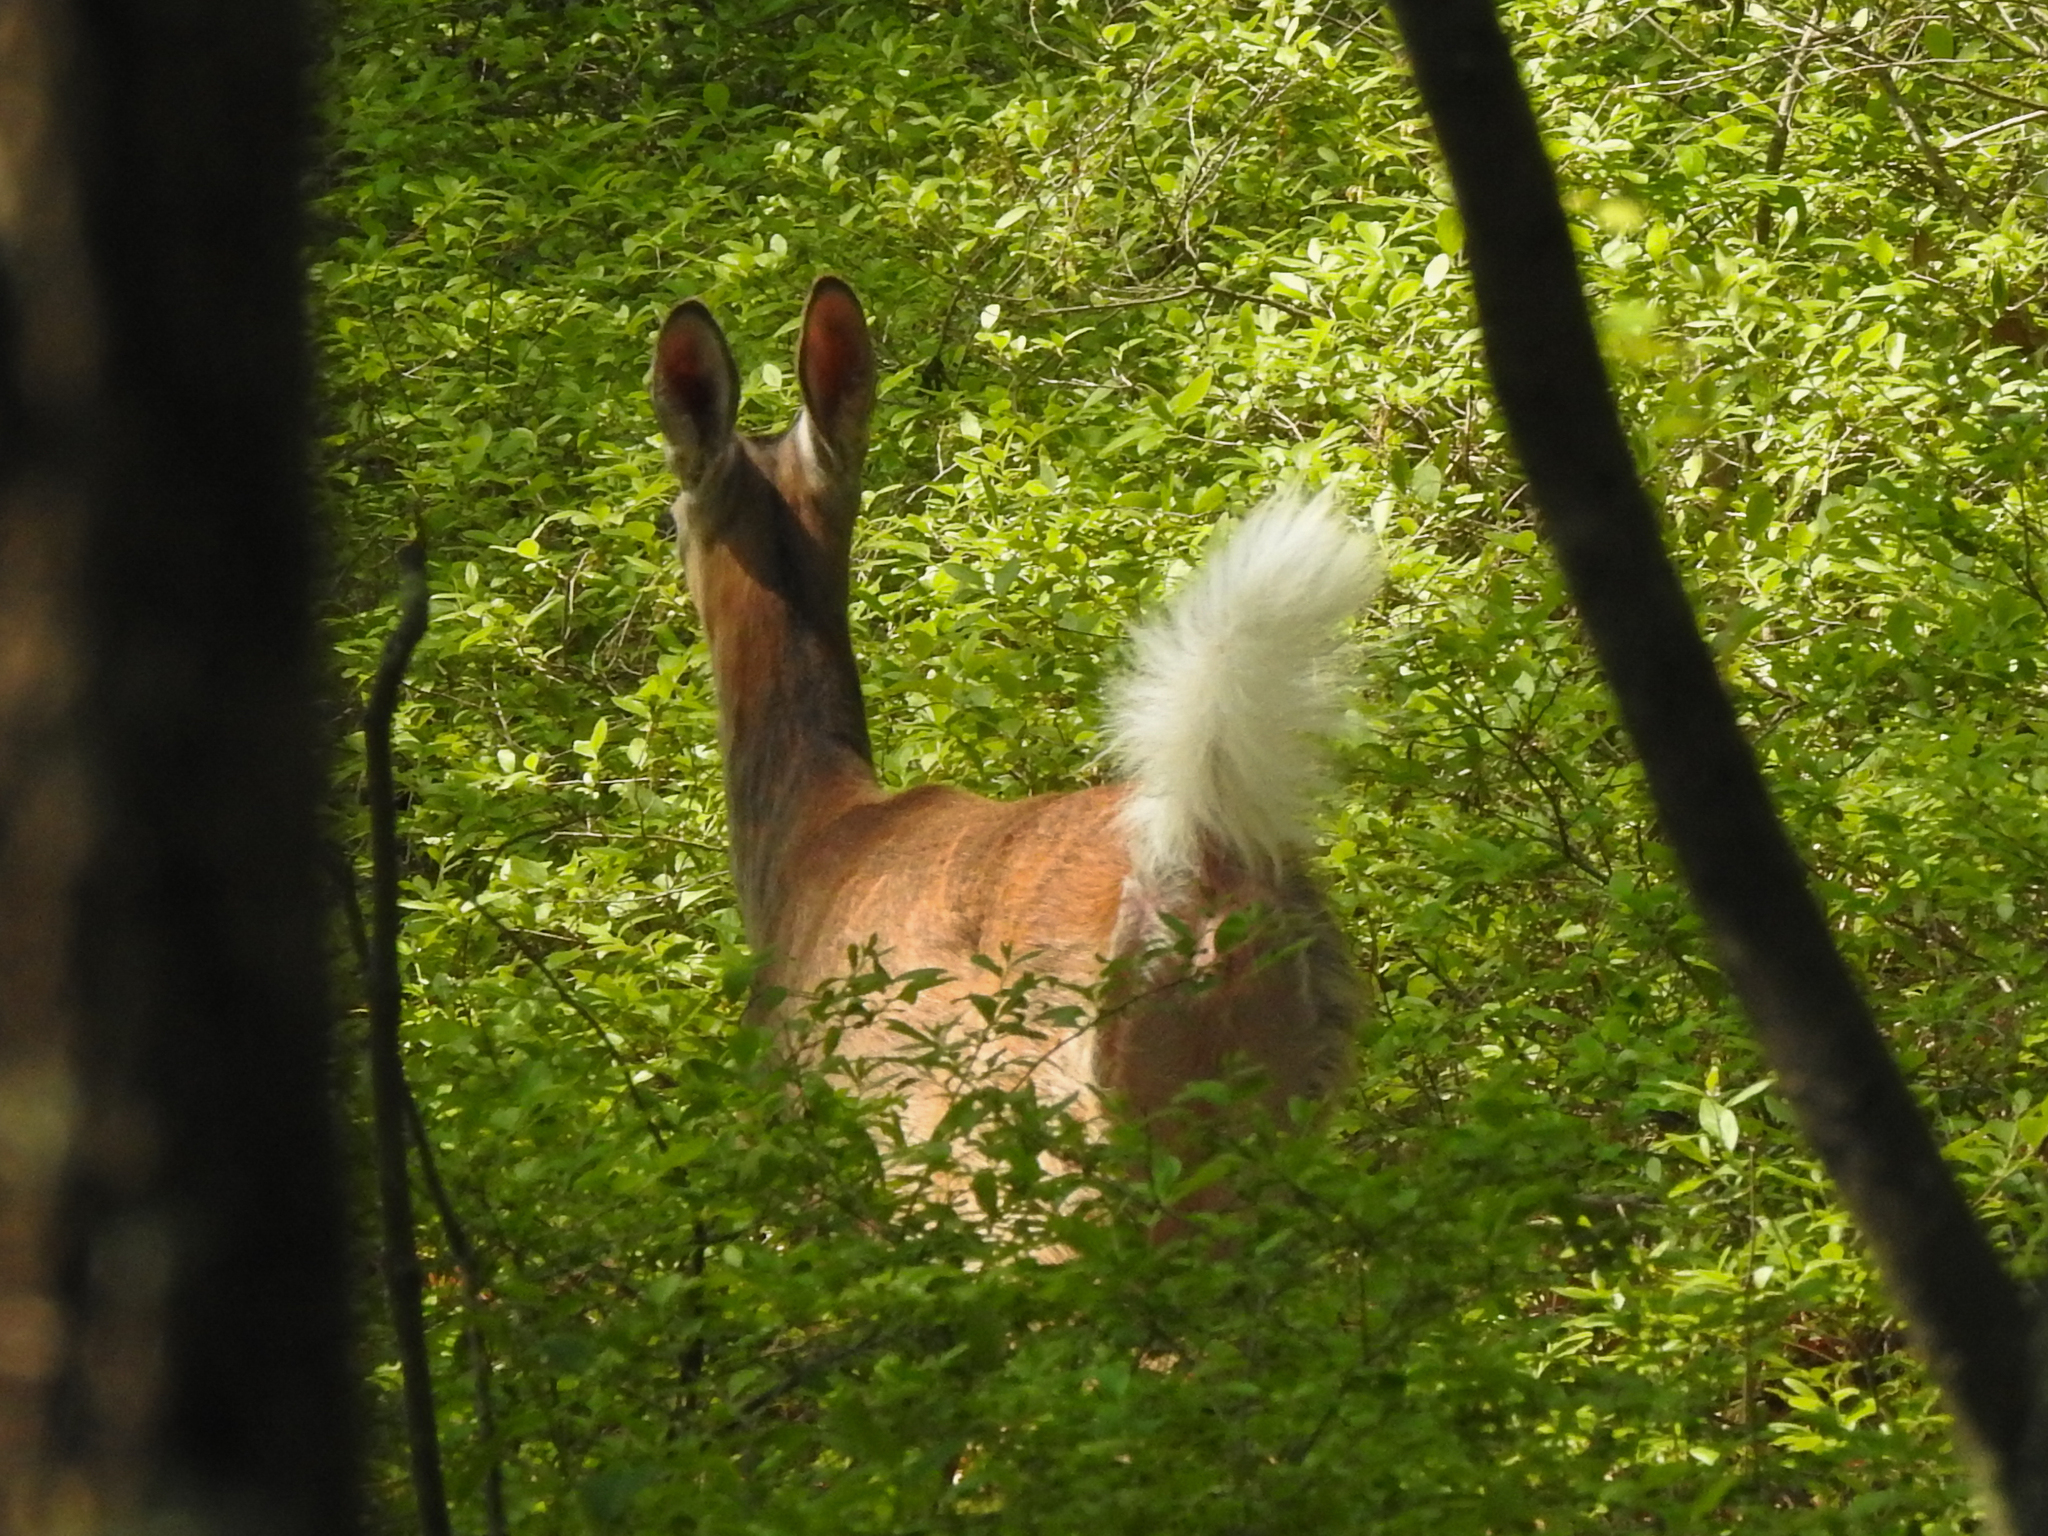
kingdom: Animalia
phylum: Chordata
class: Mammalia
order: Artiodactyla
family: Cervidae
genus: Odocoileus
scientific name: Odocoileus virginianus
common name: White-tailed deer
